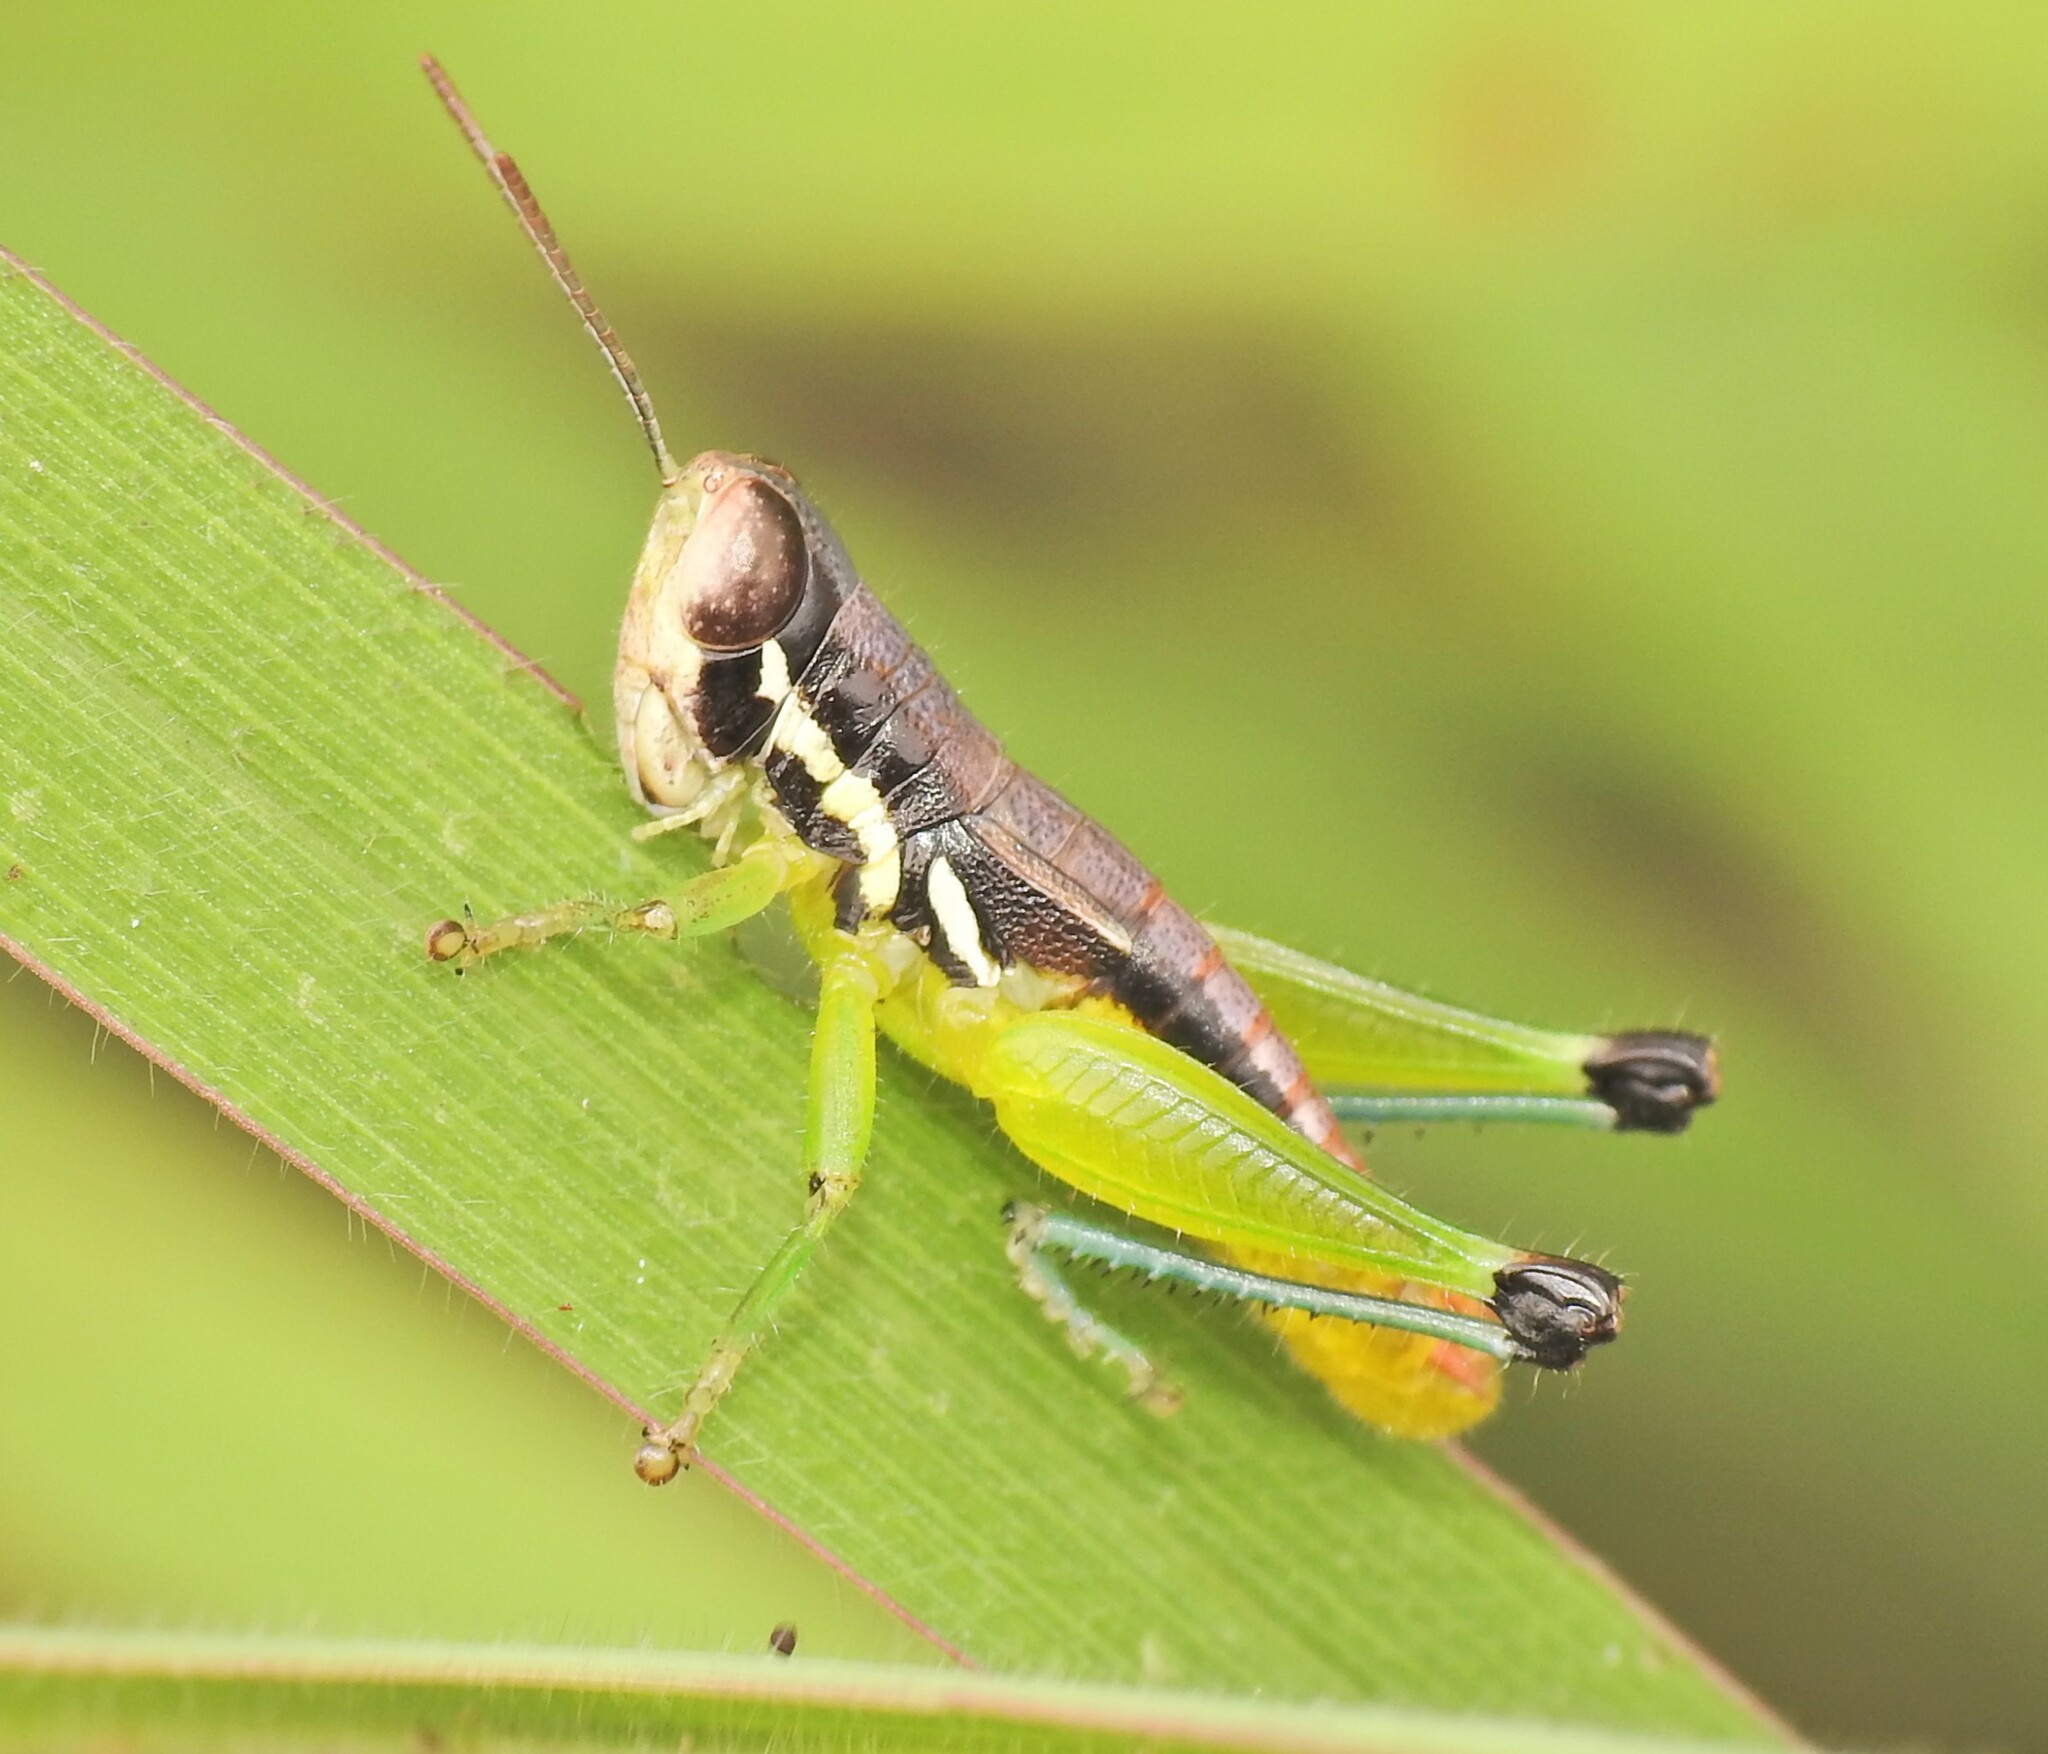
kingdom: Animalia
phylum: Arthropoda
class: Insecta
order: Orthoptera
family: Acrididae
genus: Methiolopsis
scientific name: Methiolopsis geniculata
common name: Little black-knees
